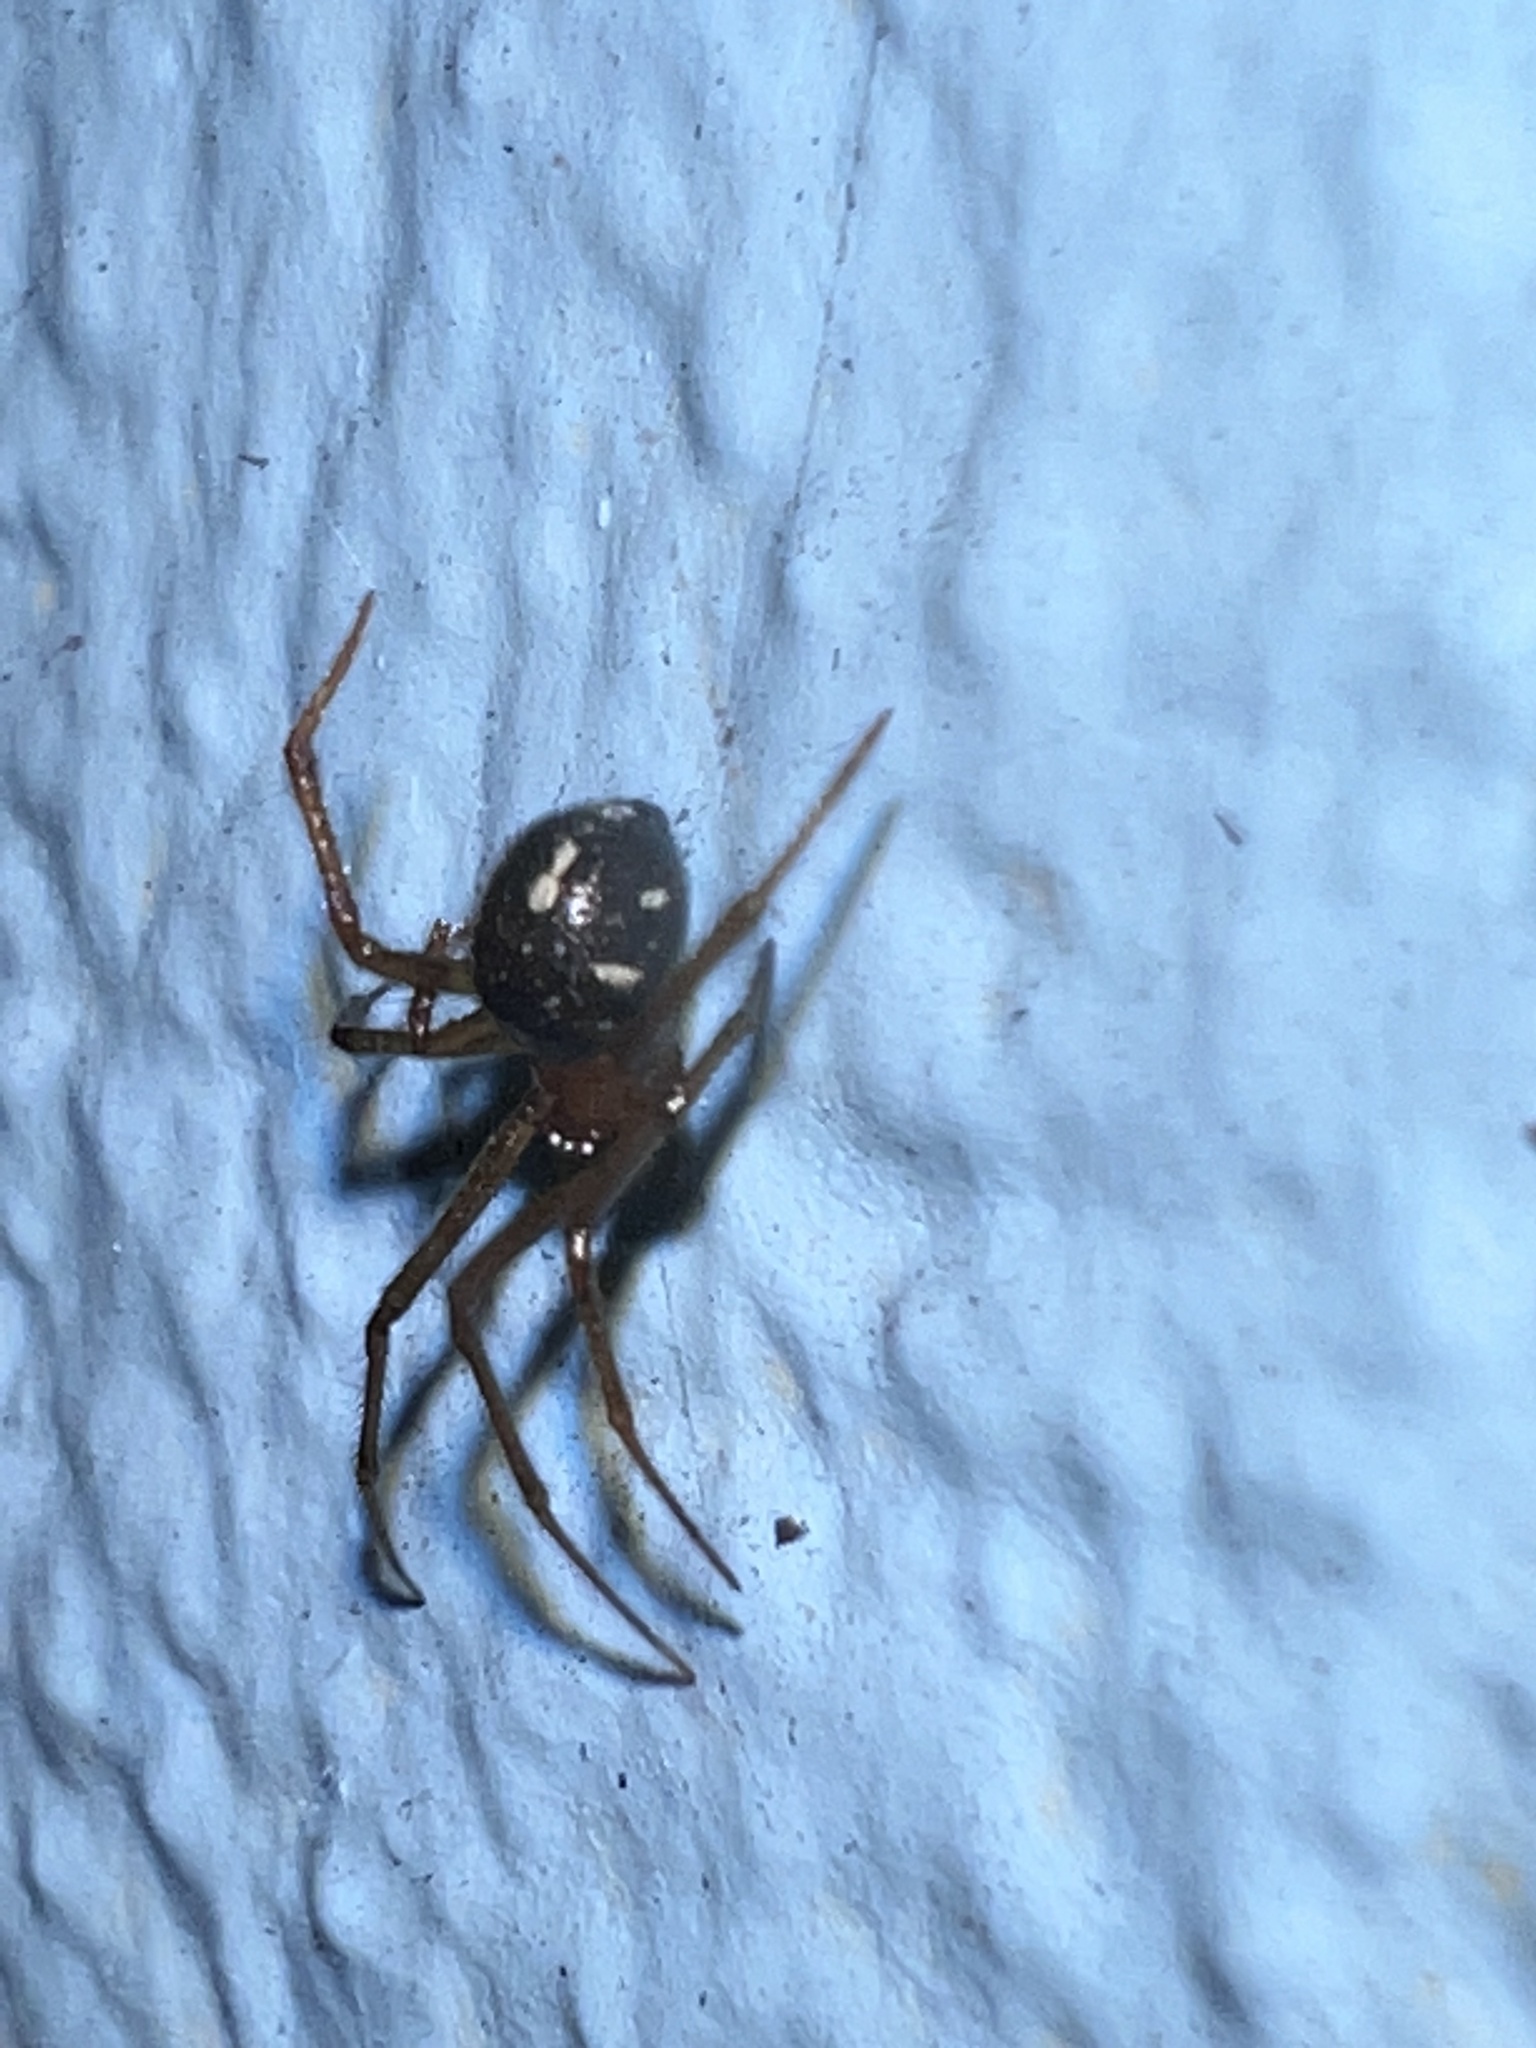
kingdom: Animalia
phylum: Arthropoda
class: Arachnida
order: Araneae
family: Theridiidae
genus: Nesticodes
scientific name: Nesticodes rufipes
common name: Cobweb spiders
